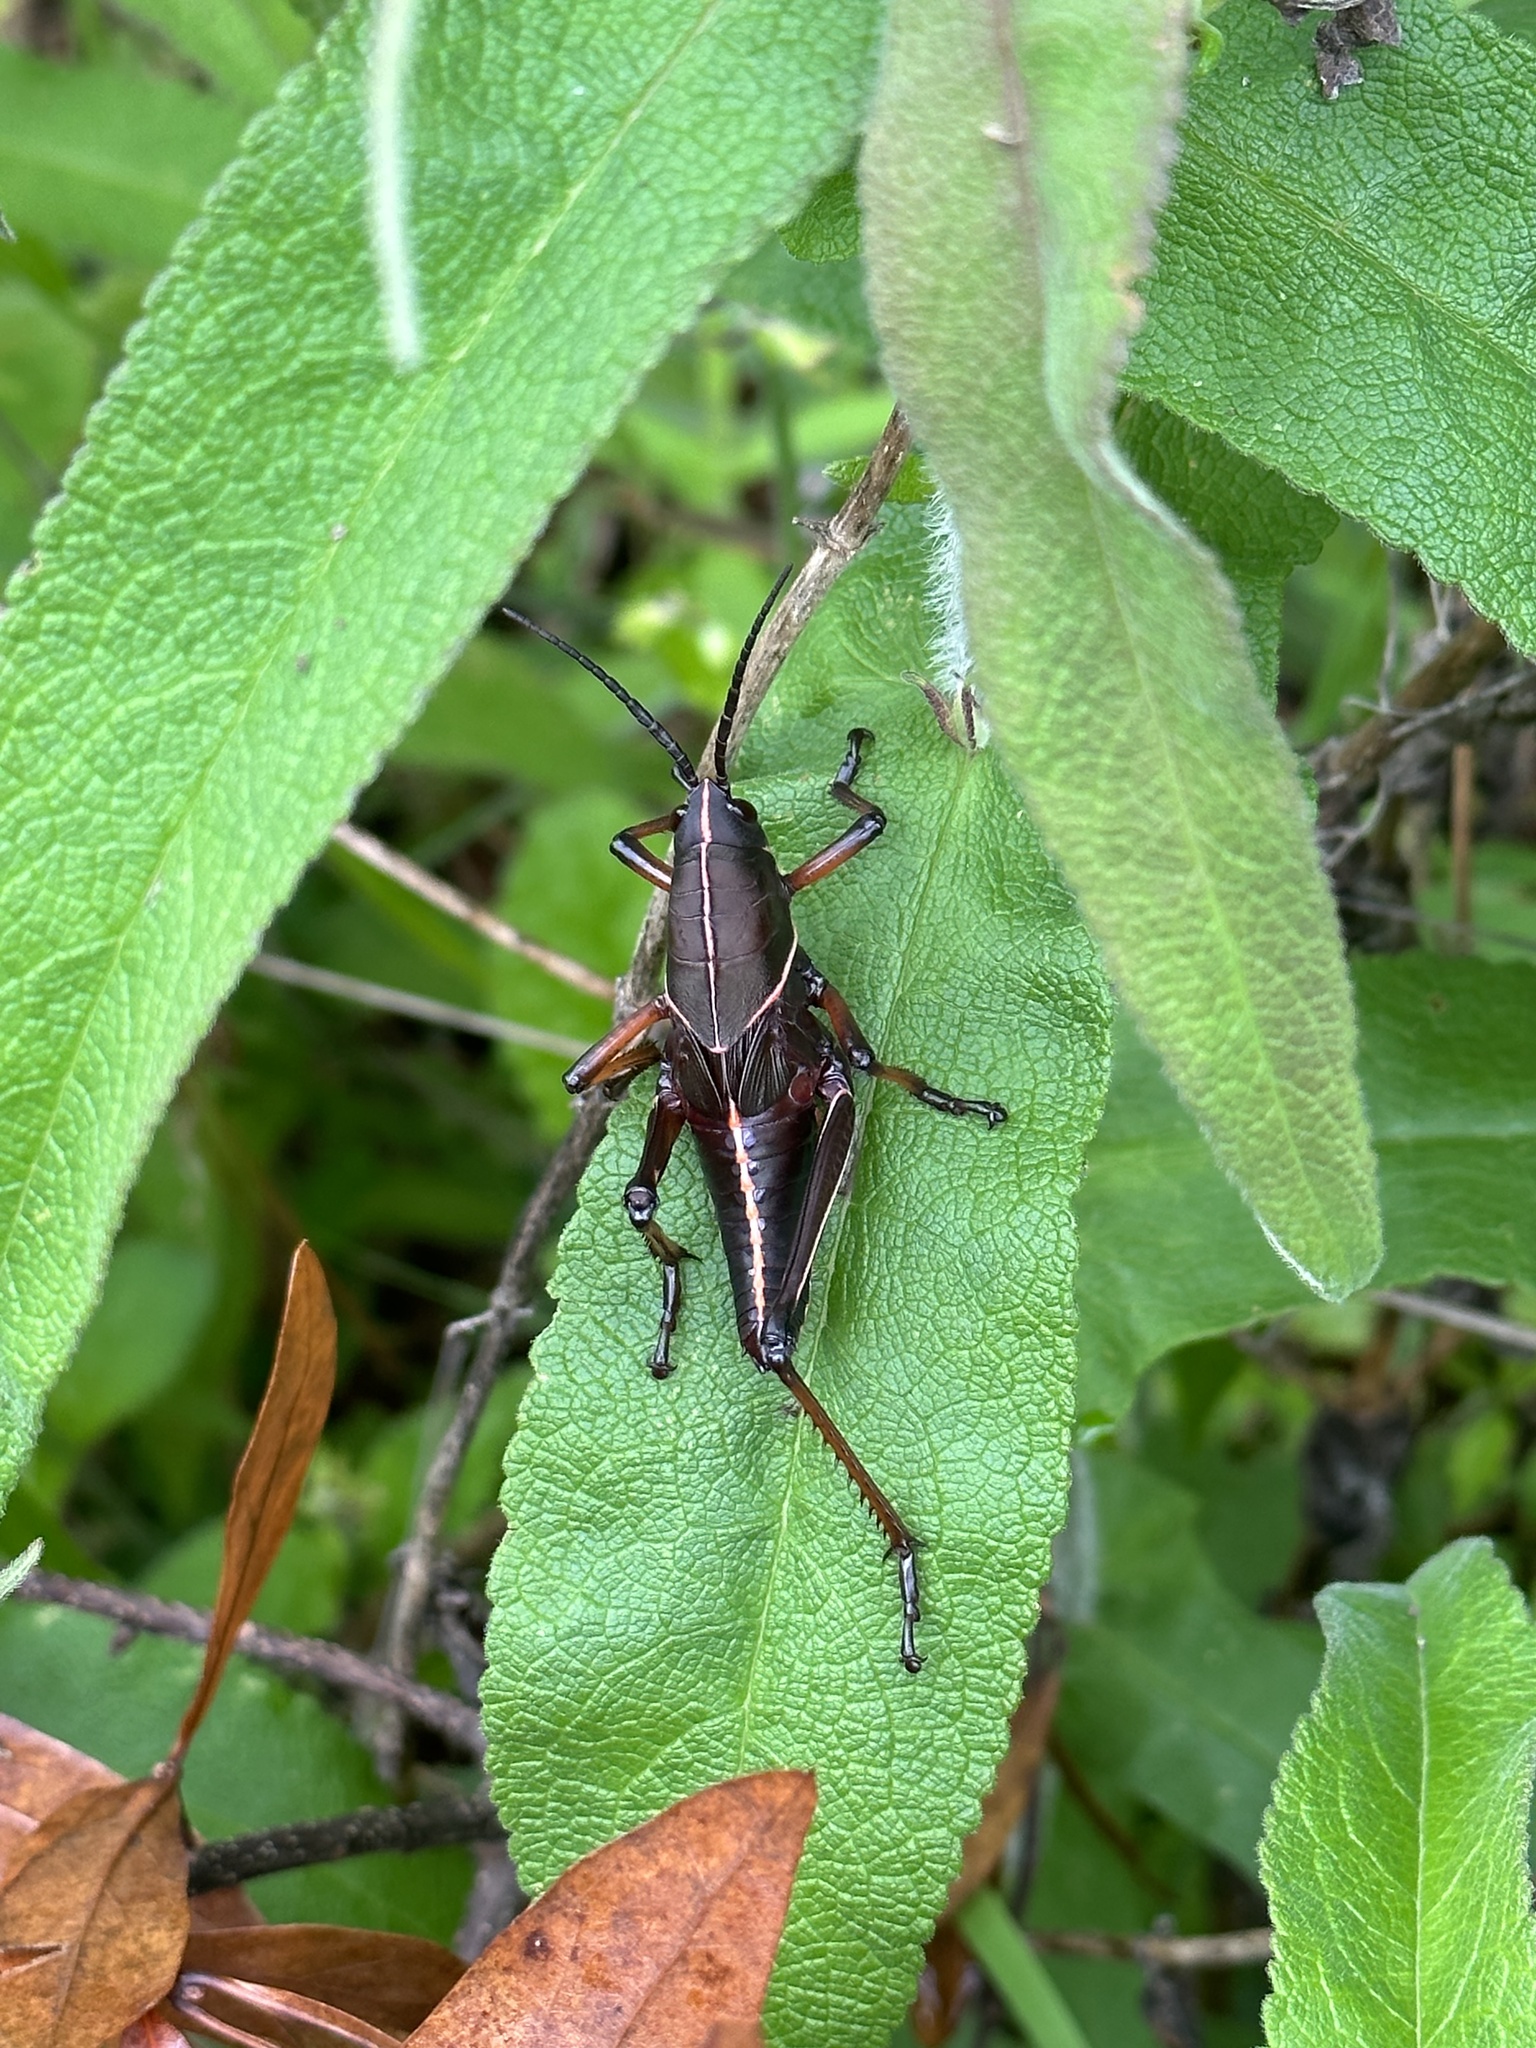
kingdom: Animalia
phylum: Arthropoda
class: Insecta
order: Orthoptera
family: Romaleidae
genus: Romalea
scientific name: Romalea microptera
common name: Eastern lubber grasshopper
